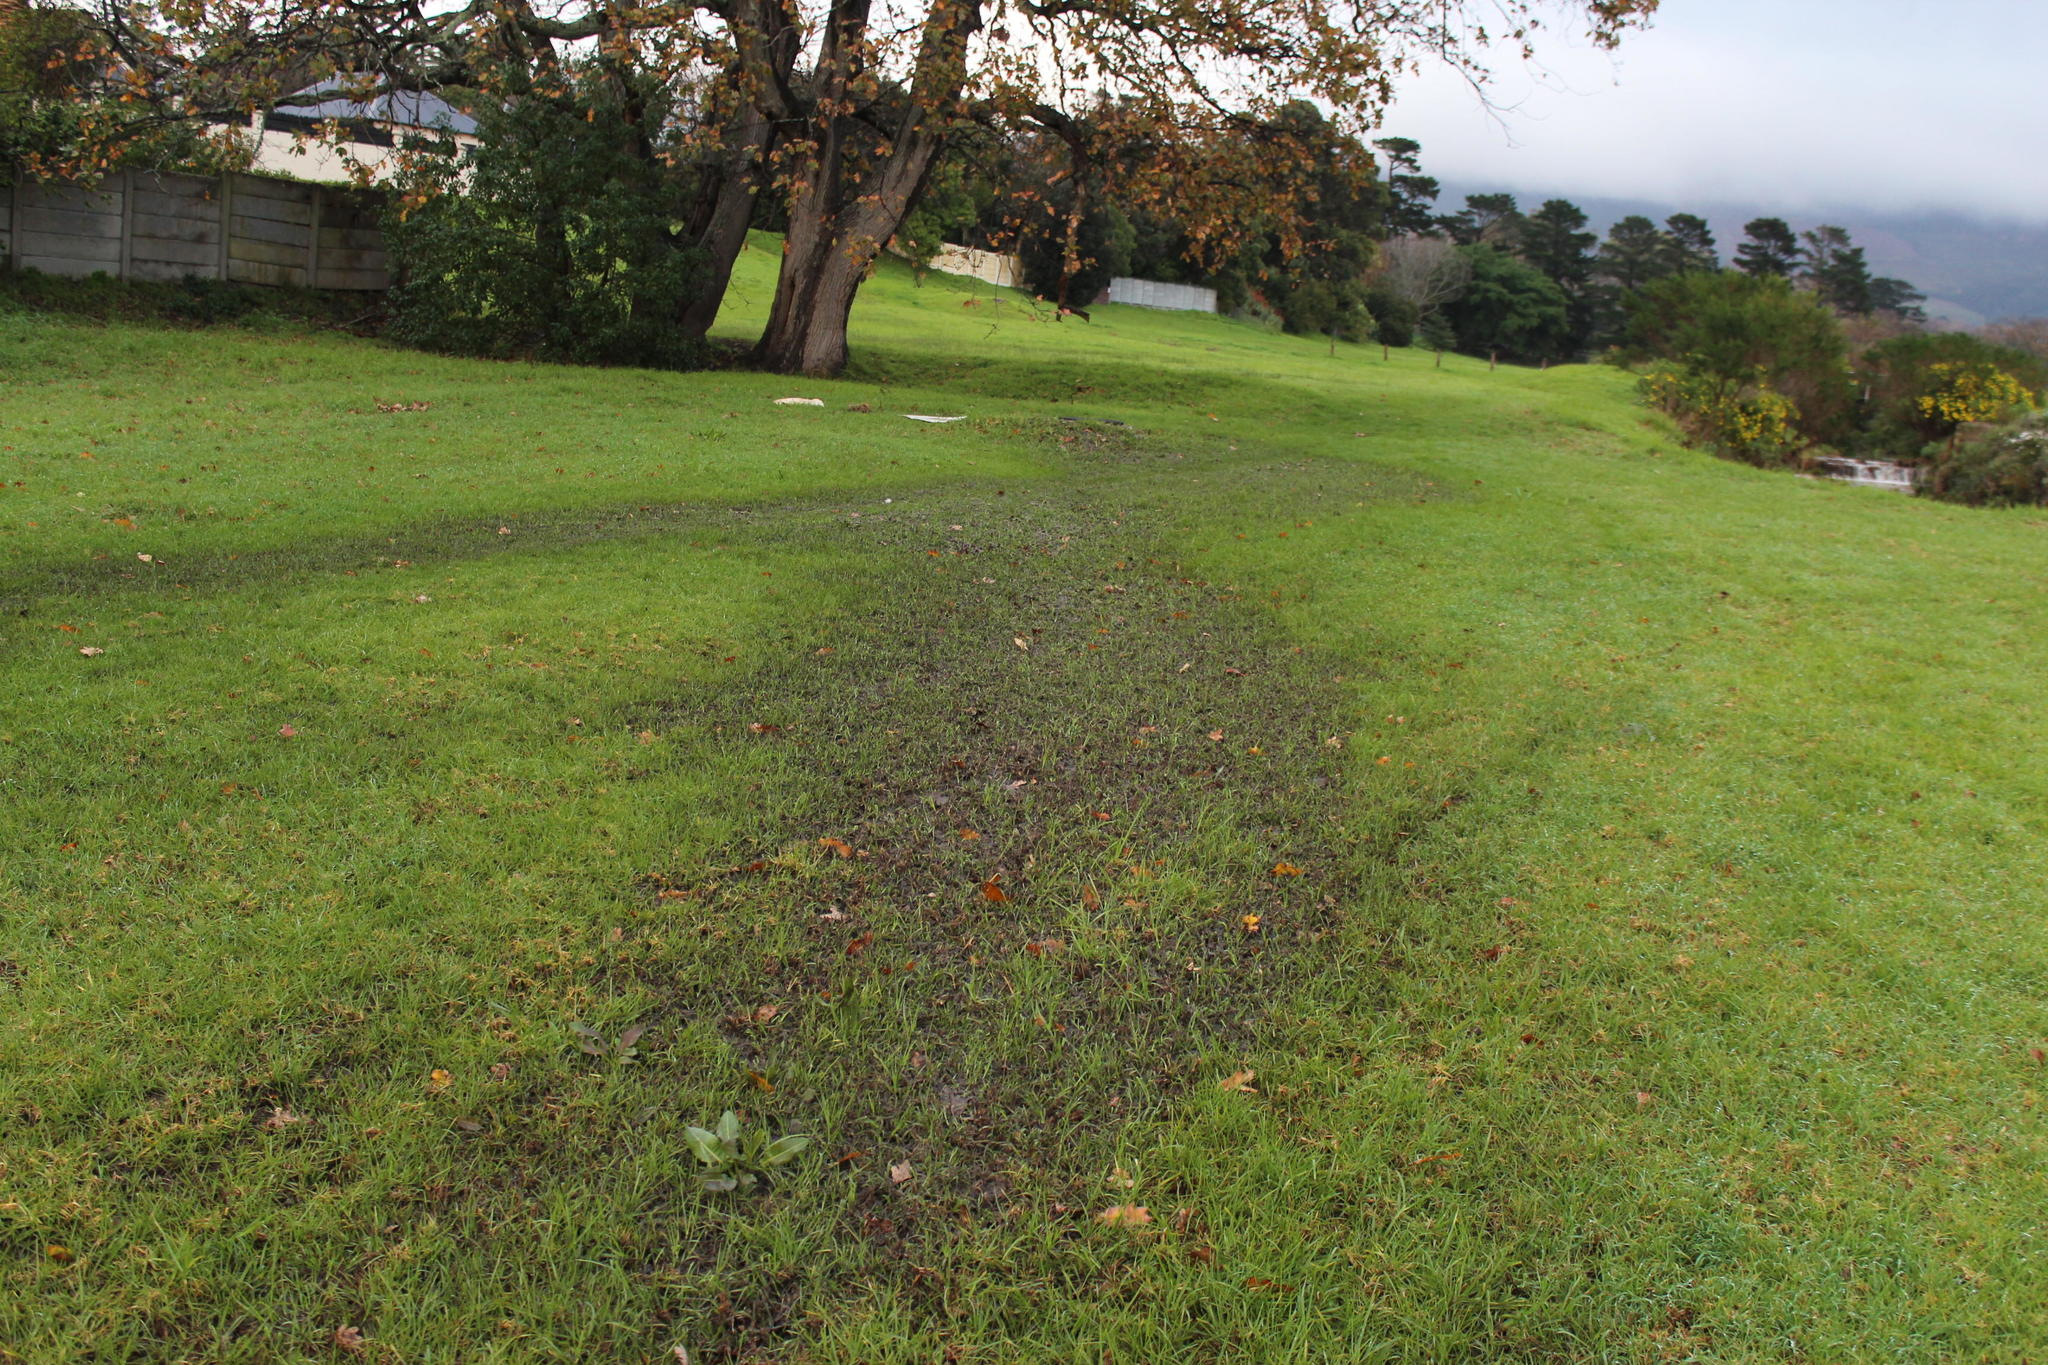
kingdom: Plantae
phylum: Tracheophyta
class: Liliopsida
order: Poales
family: Poaceae
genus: Cenchrus
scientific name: Cenchrus clandestinus
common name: Kikuyugrass
